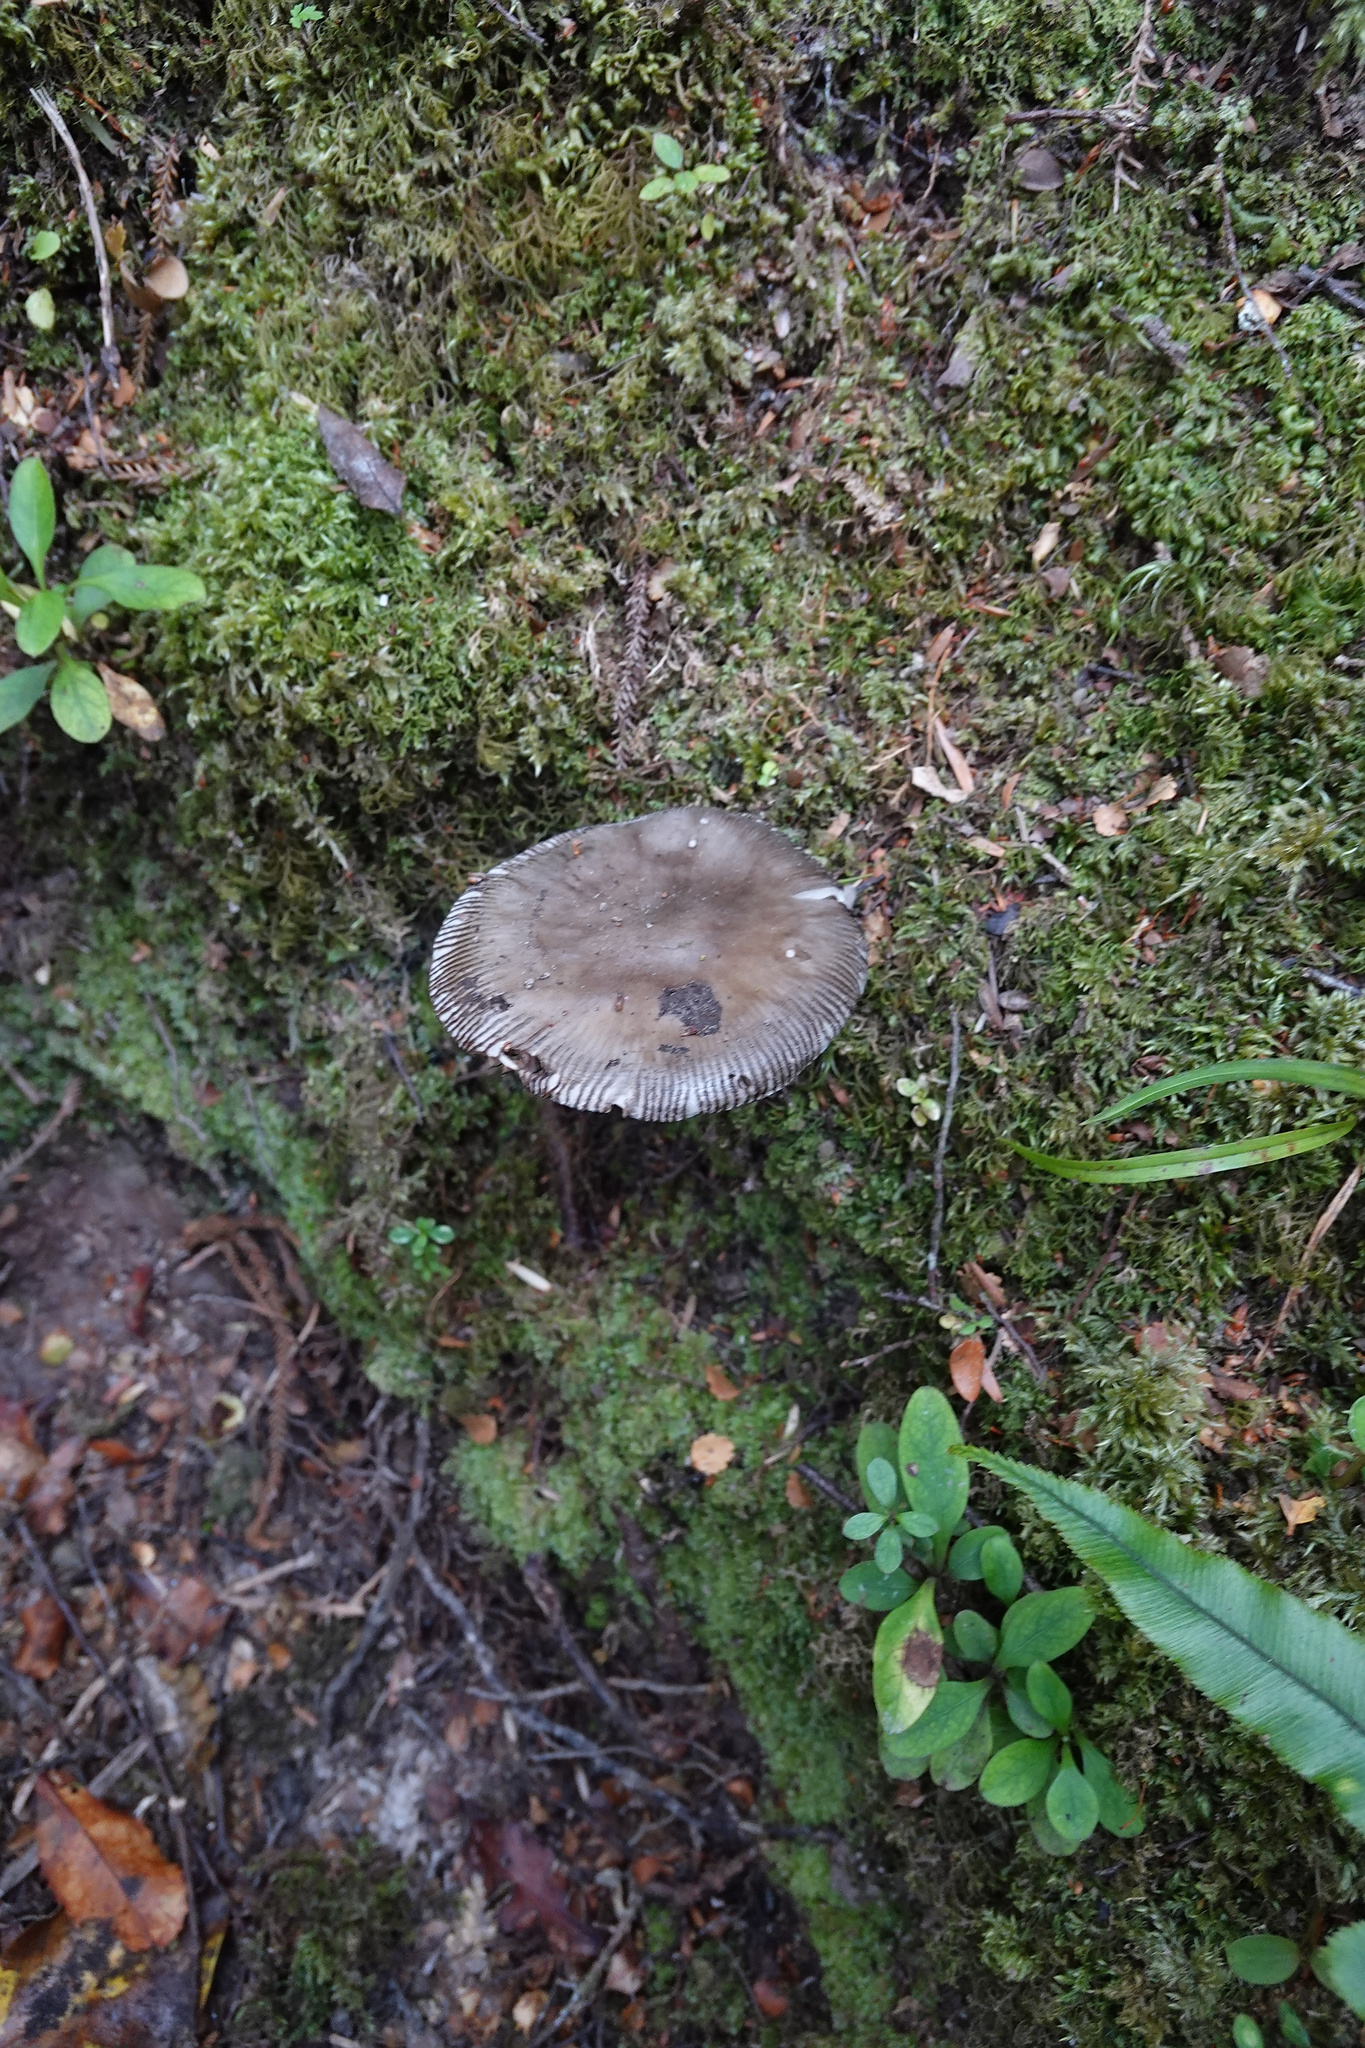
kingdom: Fungi
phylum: Basidiomycota
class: Agaricomycetes
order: Agaricales
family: Amanitaceae
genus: Amanita
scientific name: Amanita pekeoides
